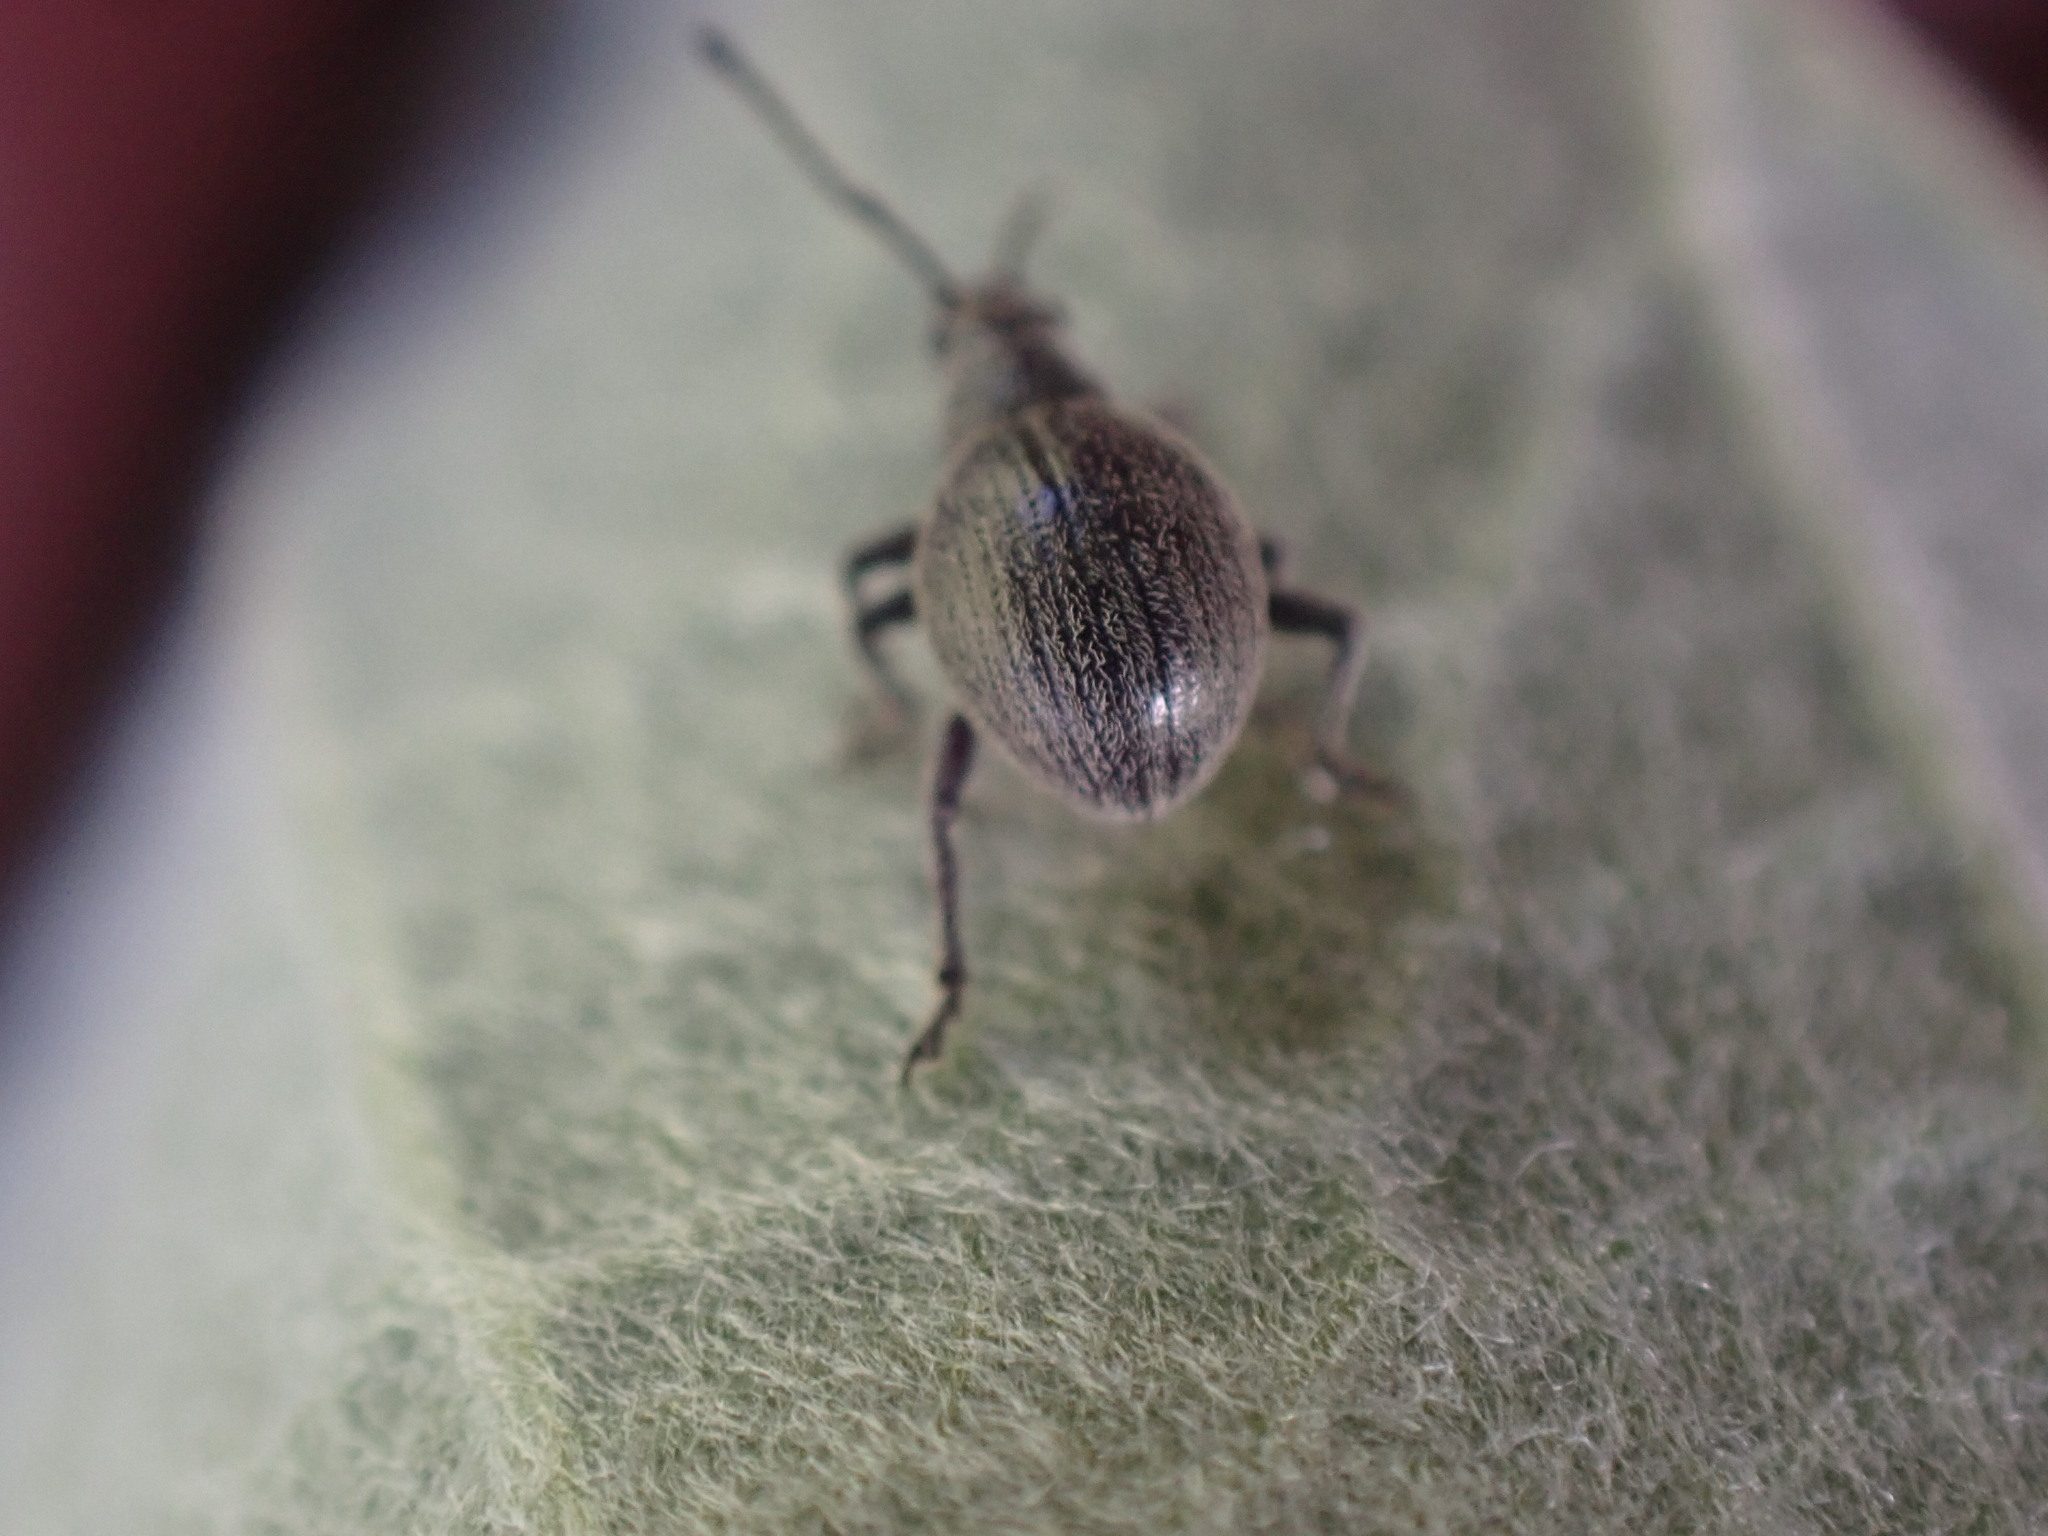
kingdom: Animalia
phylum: Arthropoda
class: Insecta
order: Coleoptera
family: Curculionidae
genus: Omias
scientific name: Omias saccatus
